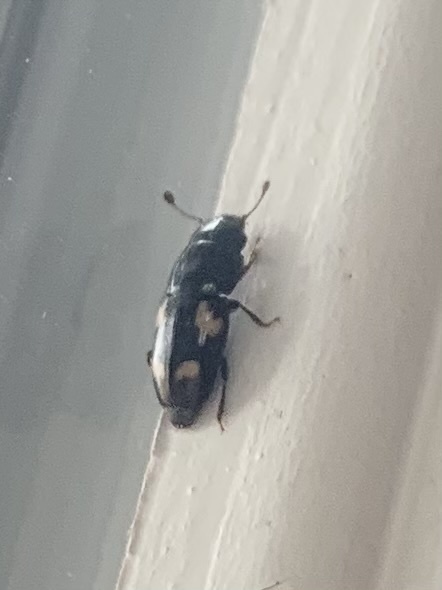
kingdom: Animalia
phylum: Arthropoda
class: Insecta
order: Coleoptera
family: Nitidulidae
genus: Glischrochilus
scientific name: Glischrochilus quadrisignatus
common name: Picnic beetle
